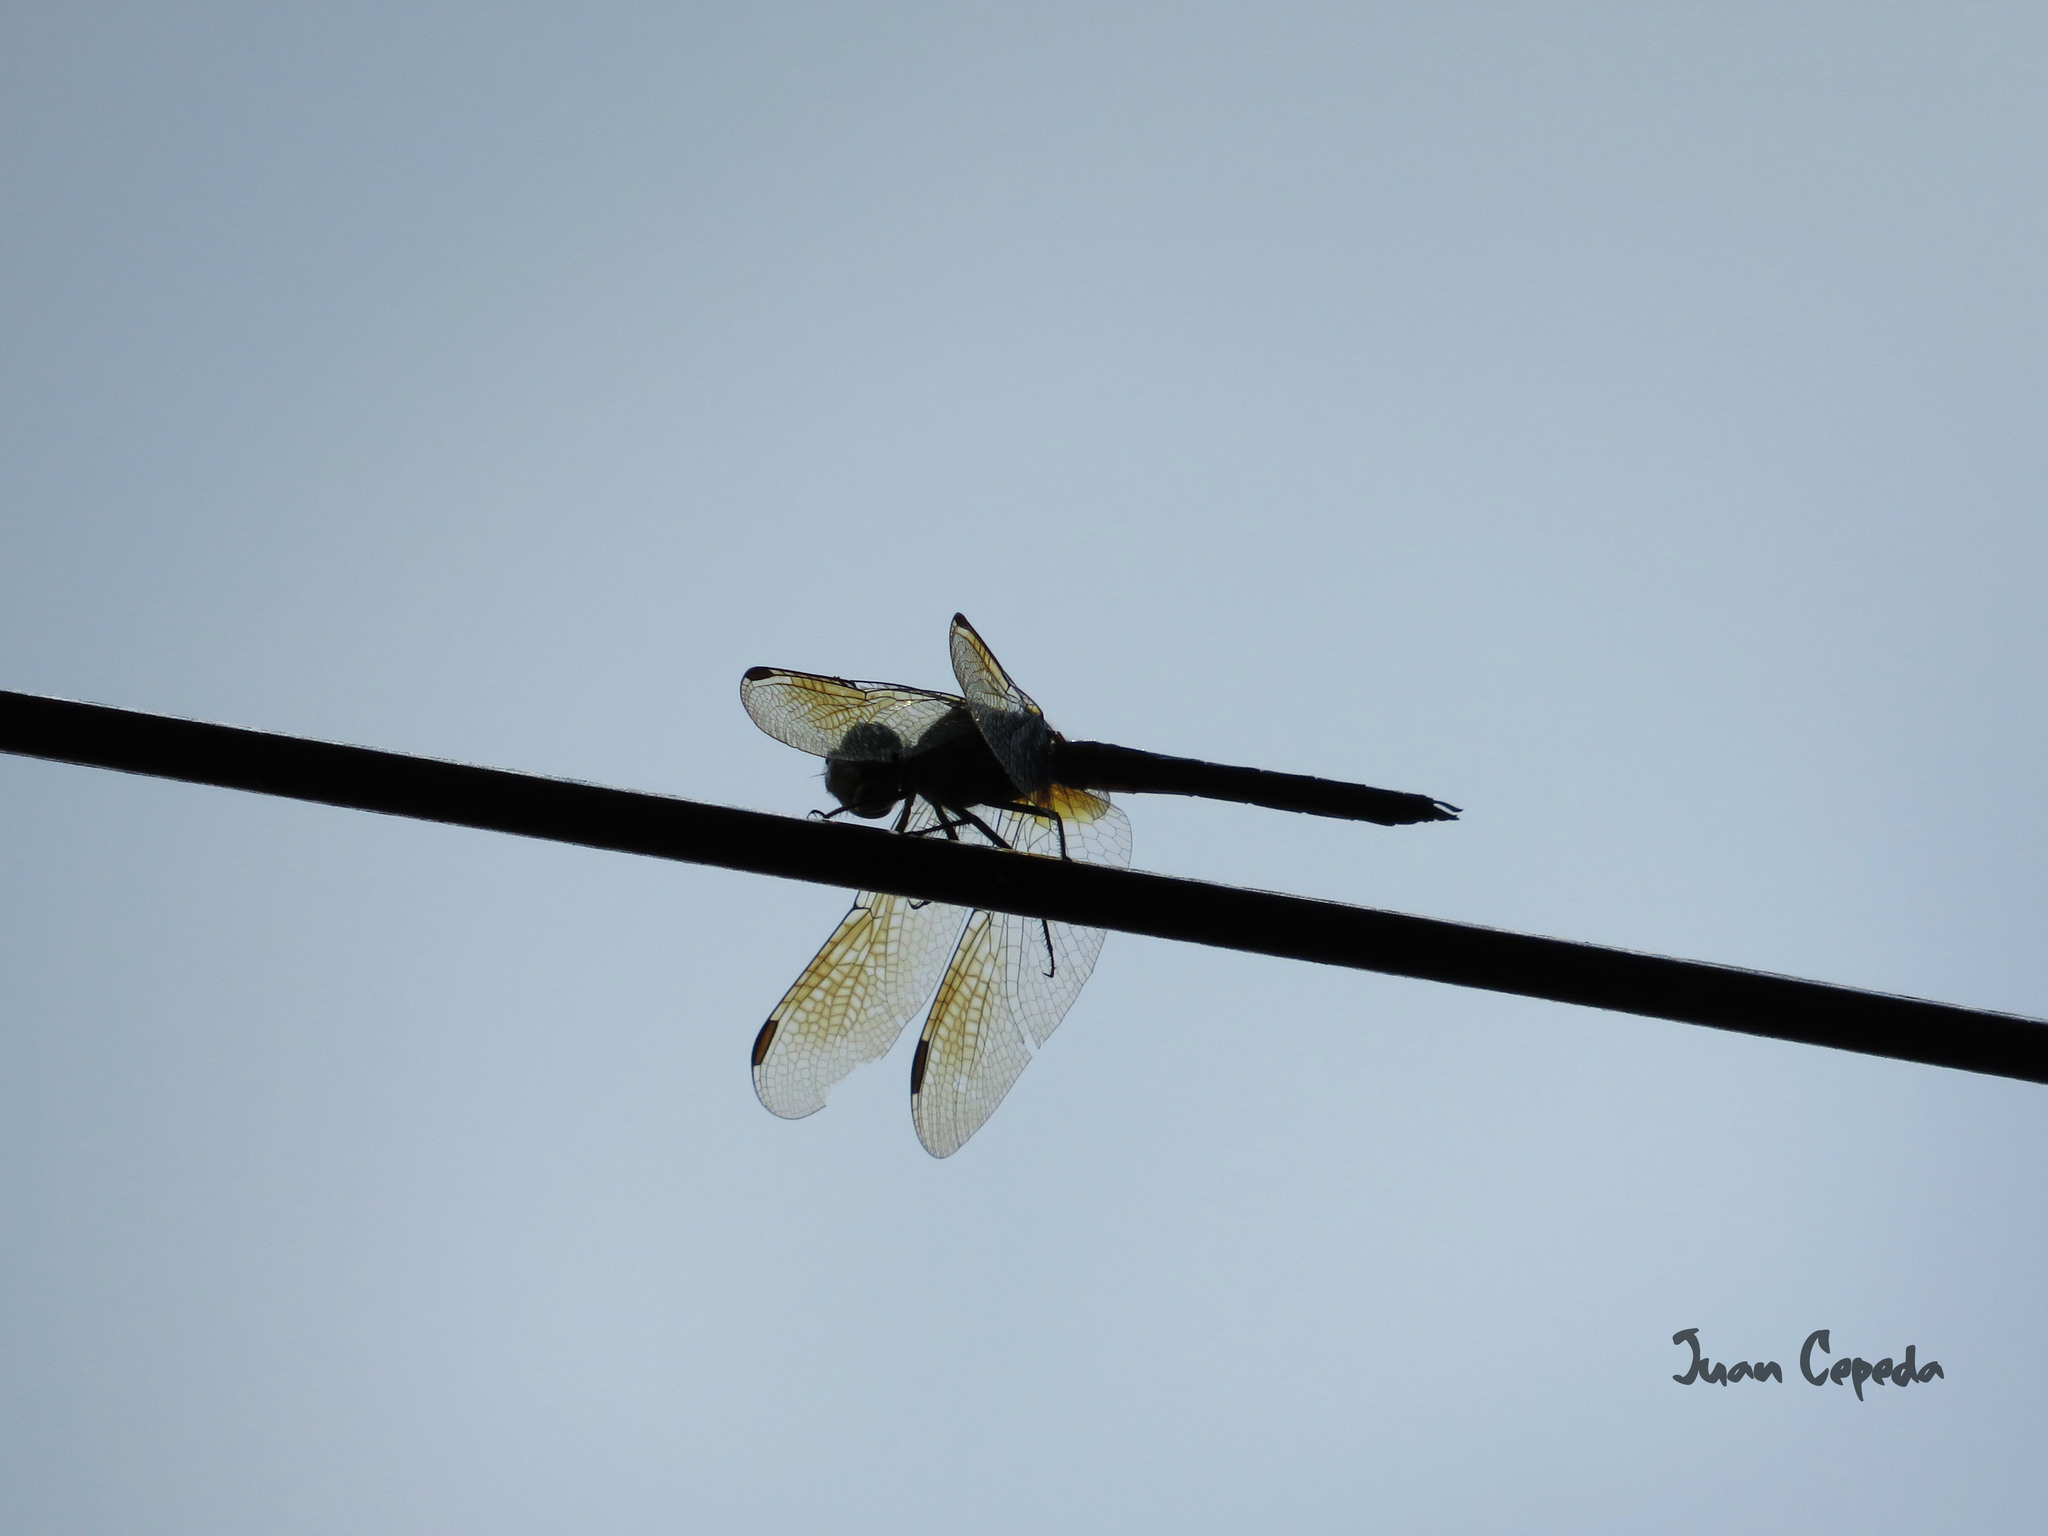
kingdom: Animalia
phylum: Arthropoda
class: Insecta
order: Odonata
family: Libellulidae
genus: Pachydiplax
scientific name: Pachydiplax longipennis
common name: Blue dasher
